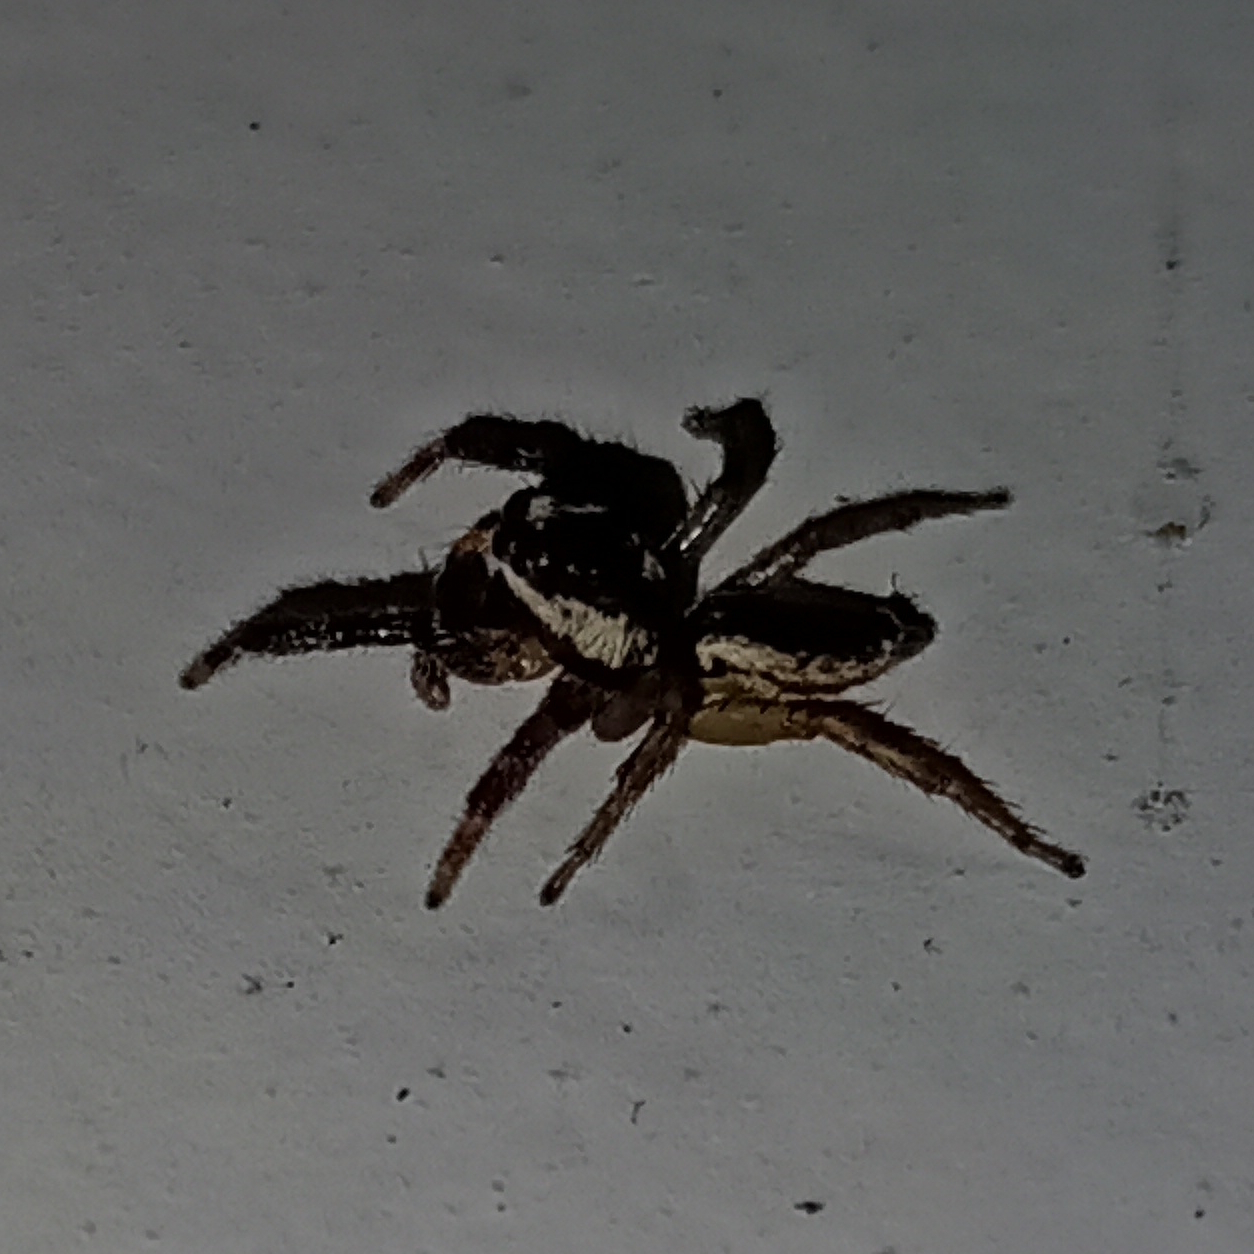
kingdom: Animalia
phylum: Arthropoda
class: Arachnida
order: Araneae
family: Salticidae
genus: Chira
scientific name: Chira lucina
